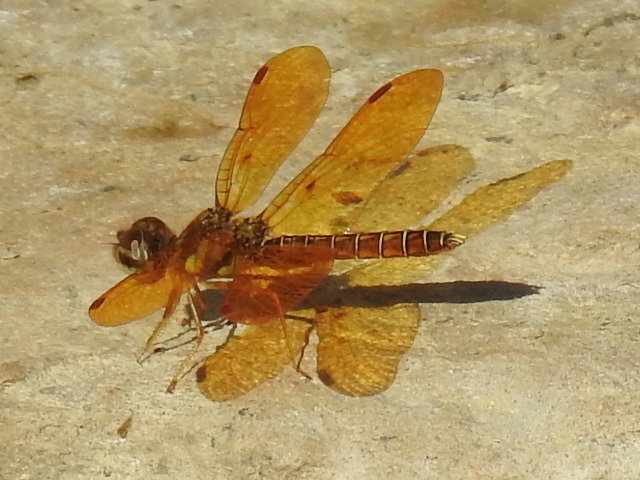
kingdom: Animalia
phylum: Arthropoda
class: Insecta
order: Odonata
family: Libellulidae
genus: Perithemis
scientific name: Perithemis tenera
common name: Eastern amberwing
